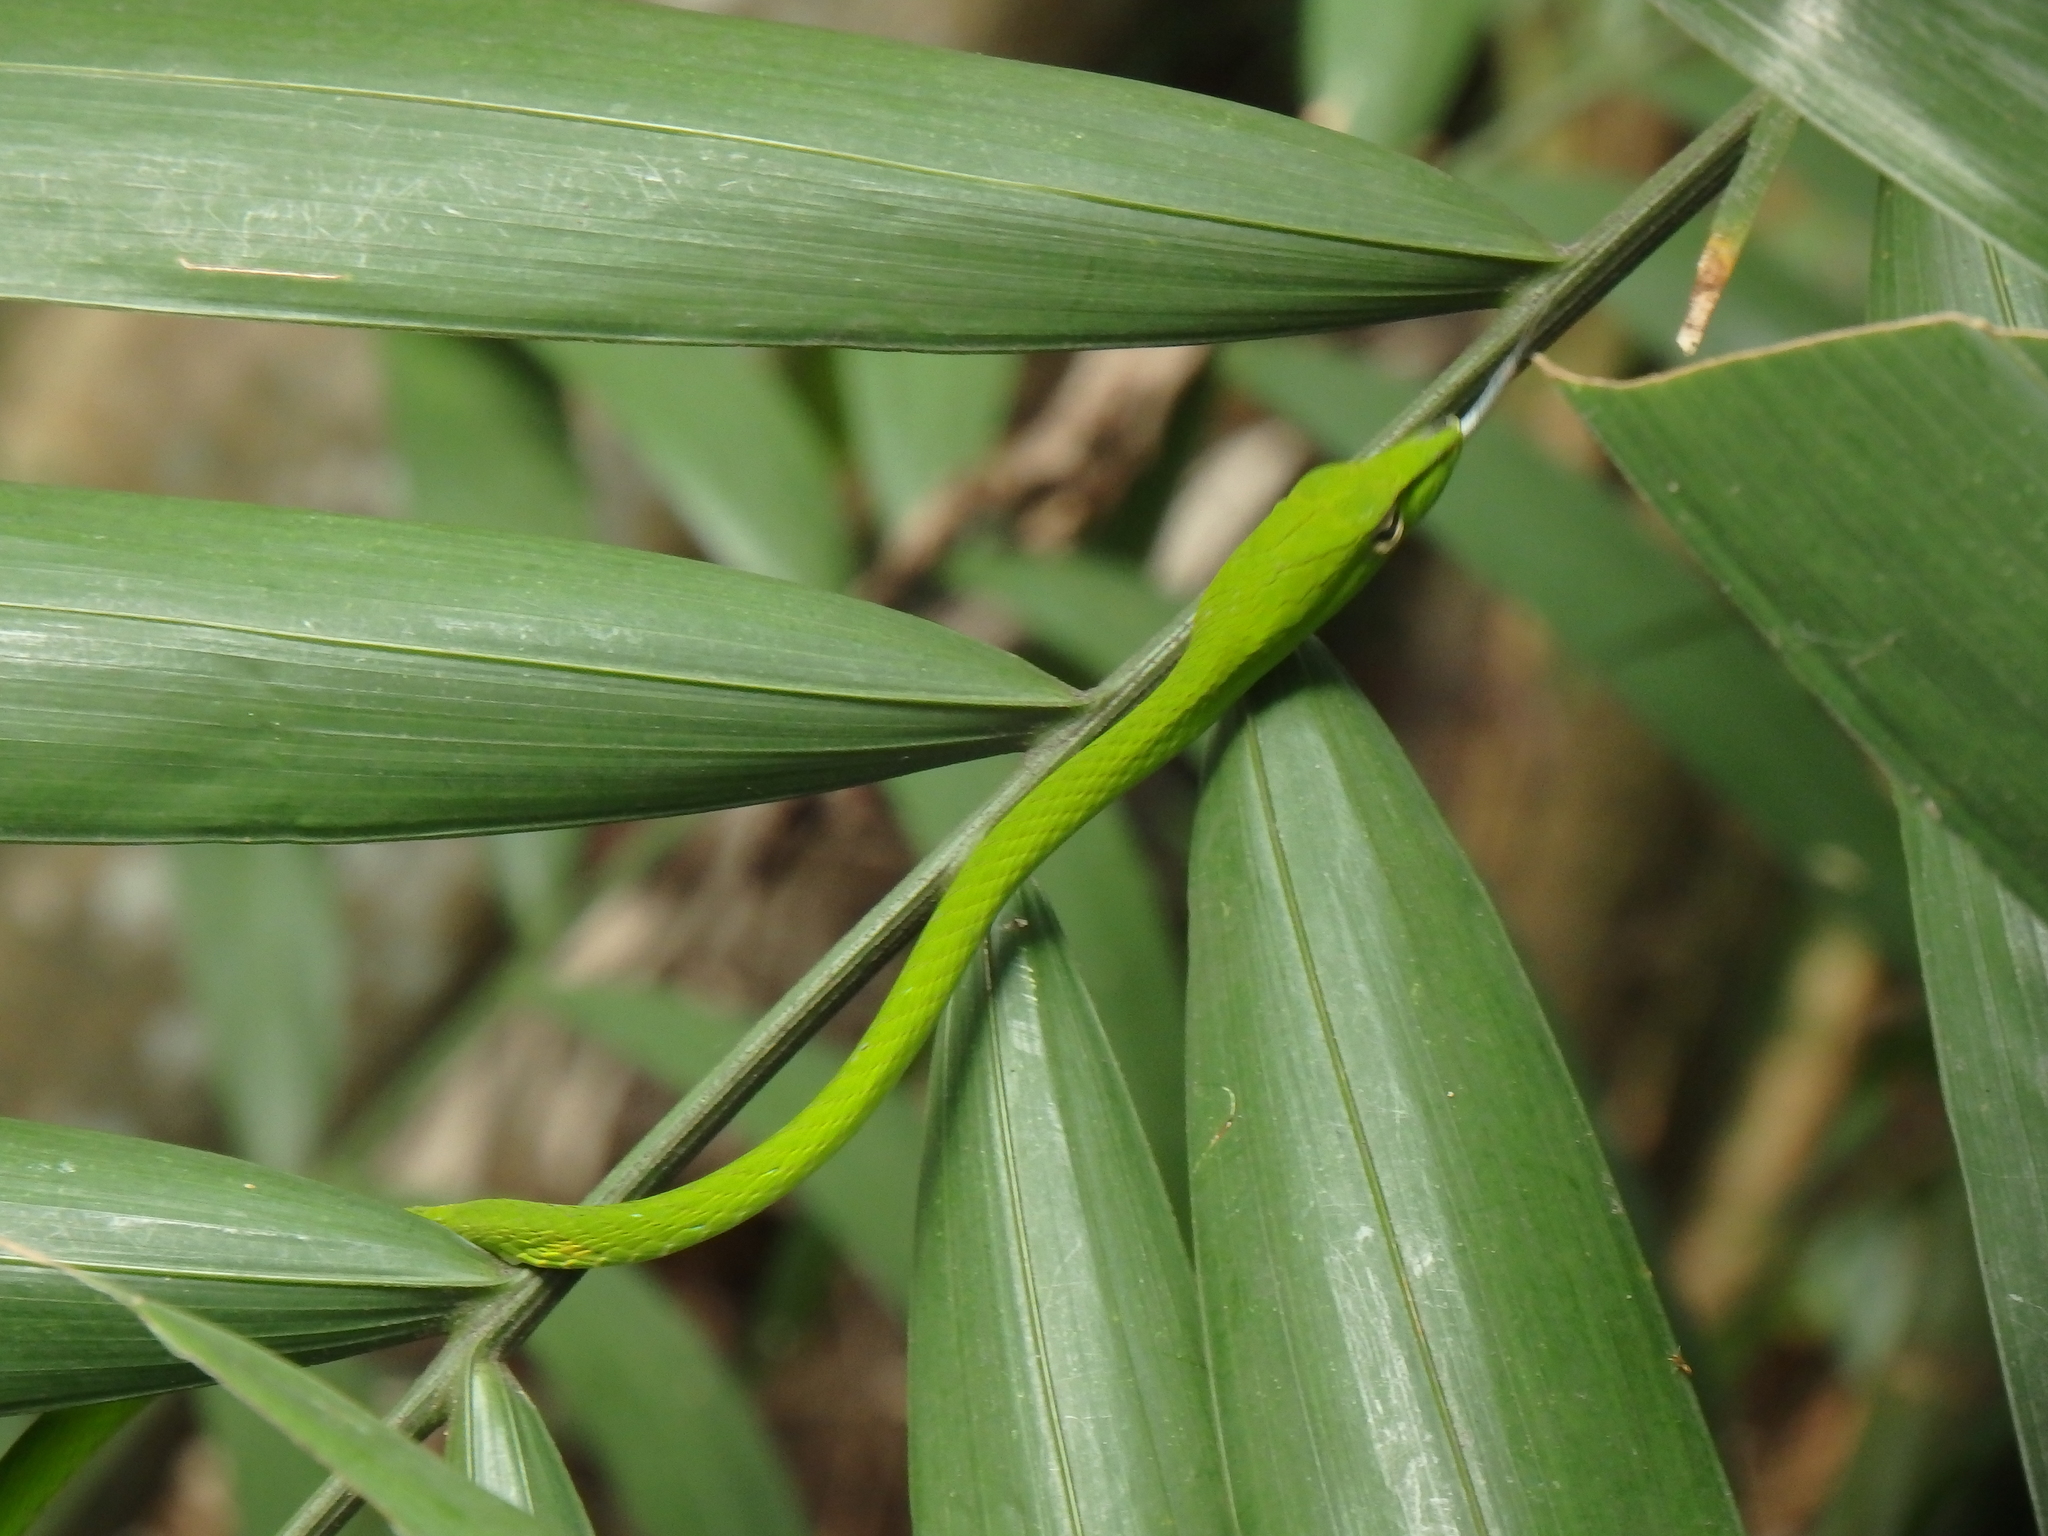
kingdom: Animalia
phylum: Chordata
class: Squamata
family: Colubridae
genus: Ahaetulla
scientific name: Ahaetulla prasina
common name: Oriental whip snake
